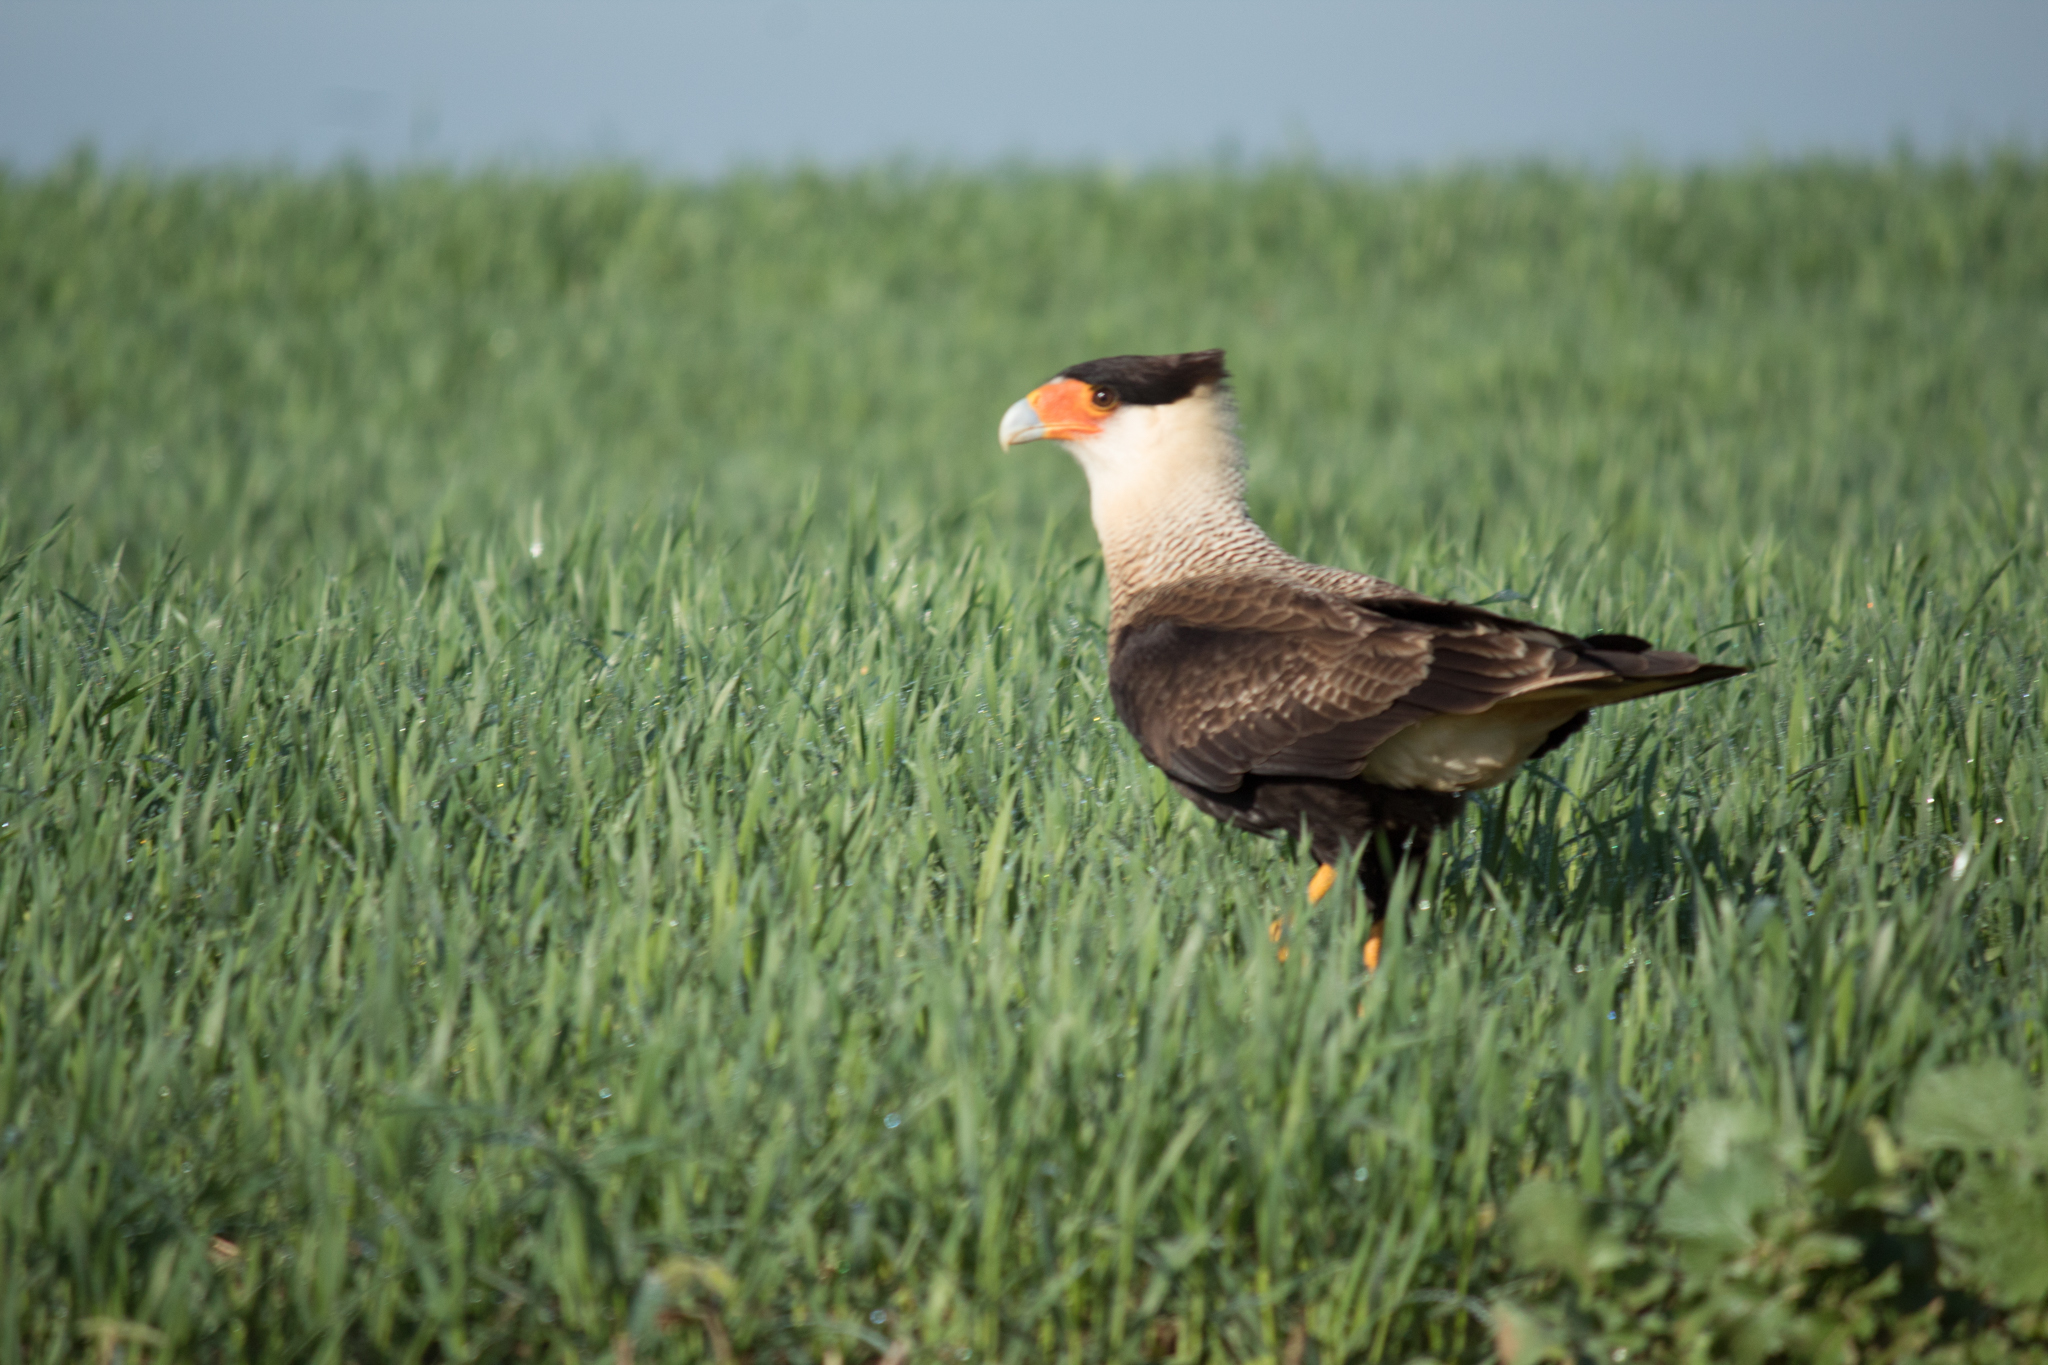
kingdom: Animalia
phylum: Chordata
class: Aves
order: Falconiformes
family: Falconidae
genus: Caracara
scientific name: Caracara plancus
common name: Southern caracara
